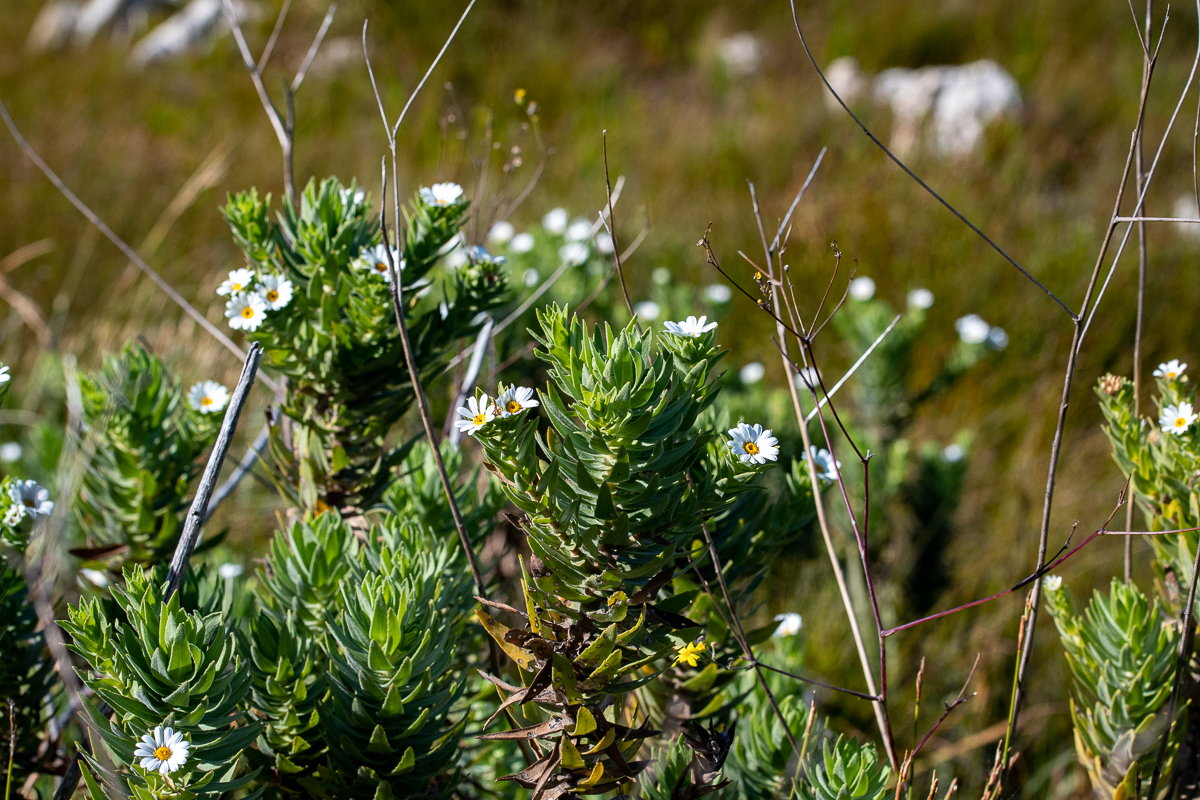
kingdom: Plantae
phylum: Tracheophyta
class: Magnoliopsida
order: Asterales
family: Asteraceae
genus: Osmitopsis
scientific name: Osmitopsis asteriscoides
